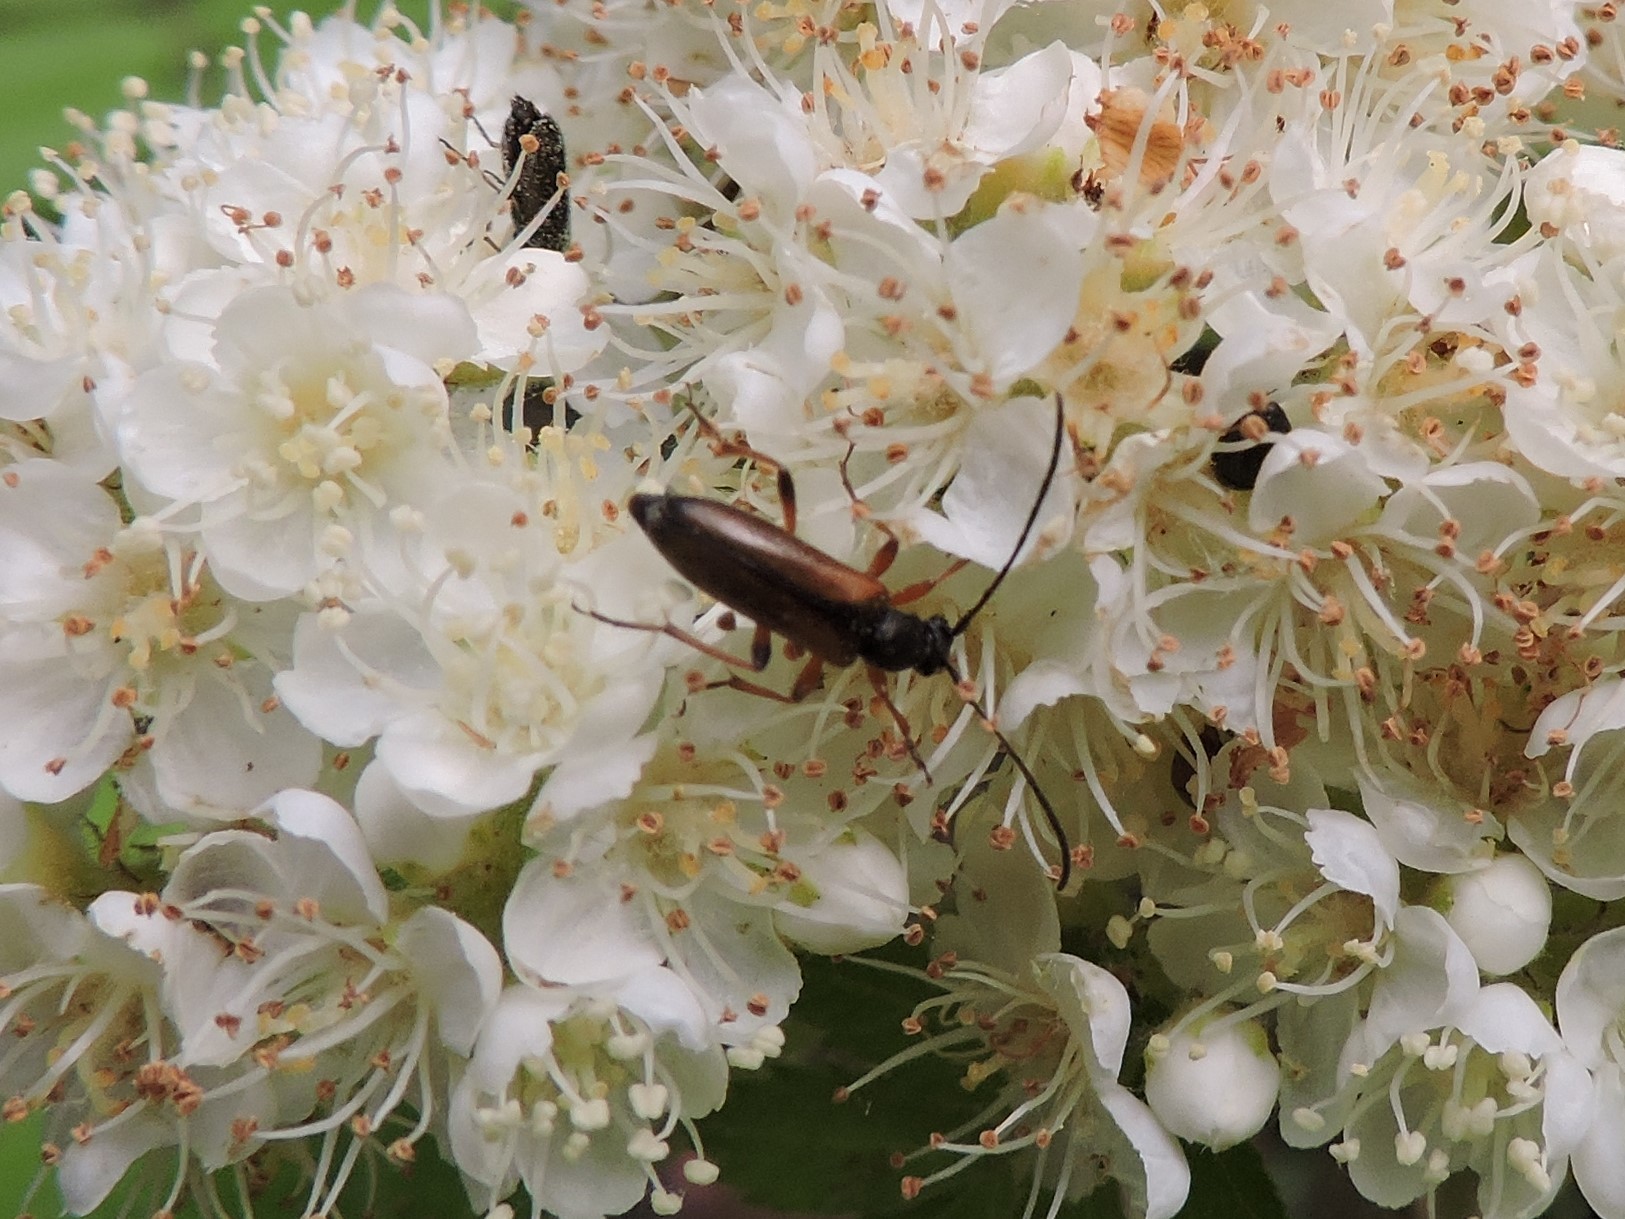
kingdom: Animalia
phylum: Arthropoda
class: Insecta
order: Coleoptera
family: Cerambycidae
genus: Alosterna
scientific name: Alosterna tabacicolor
